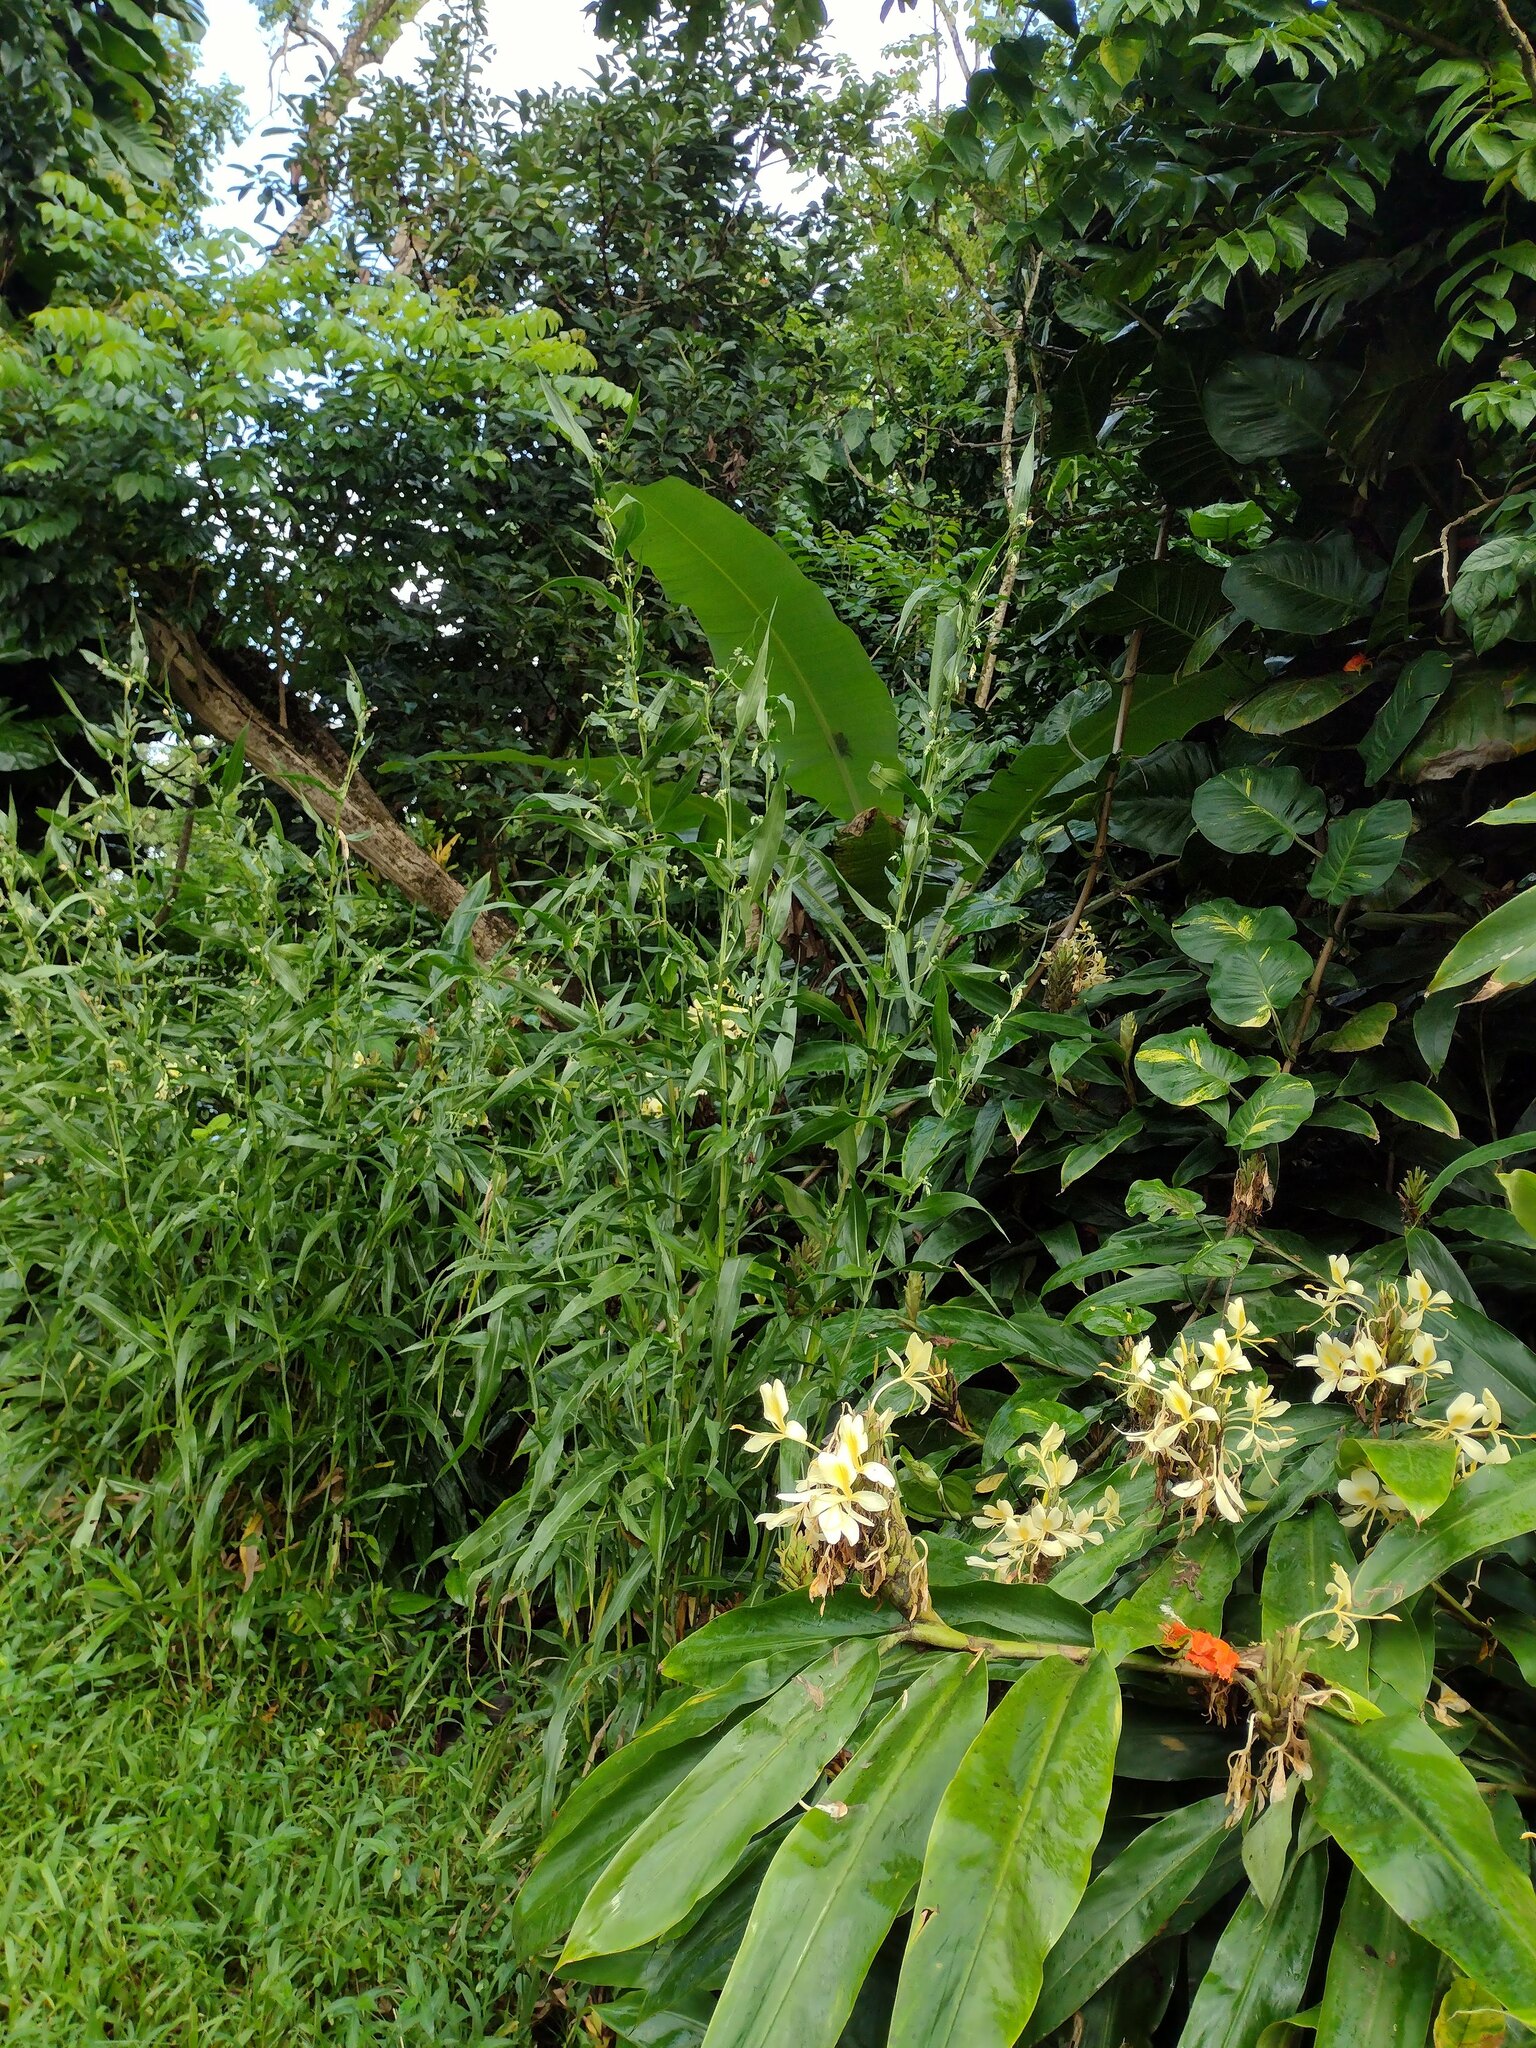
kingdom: Plantae
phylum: Tracheophyta
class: Liliopsida
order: Poales
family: Poaceae
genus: Coix
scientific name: Coix lacryma-jobi
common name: Job's tears
